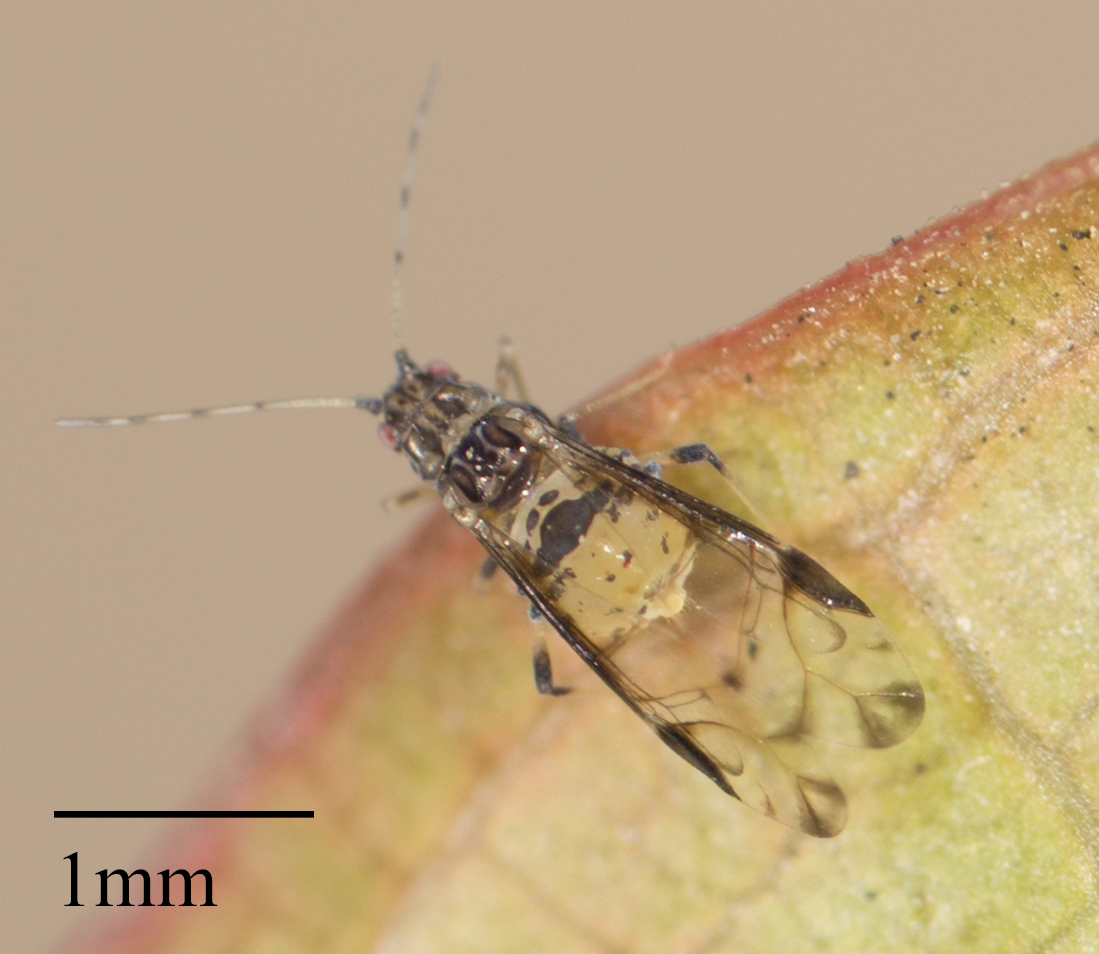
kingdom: Animalia
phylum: Arthropoda
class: Insecta
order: Hemiptera
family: Aphididae
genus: Sarucallis
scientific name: Sarucallis kahawaluokalani
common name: Crapemyrtle aphid
